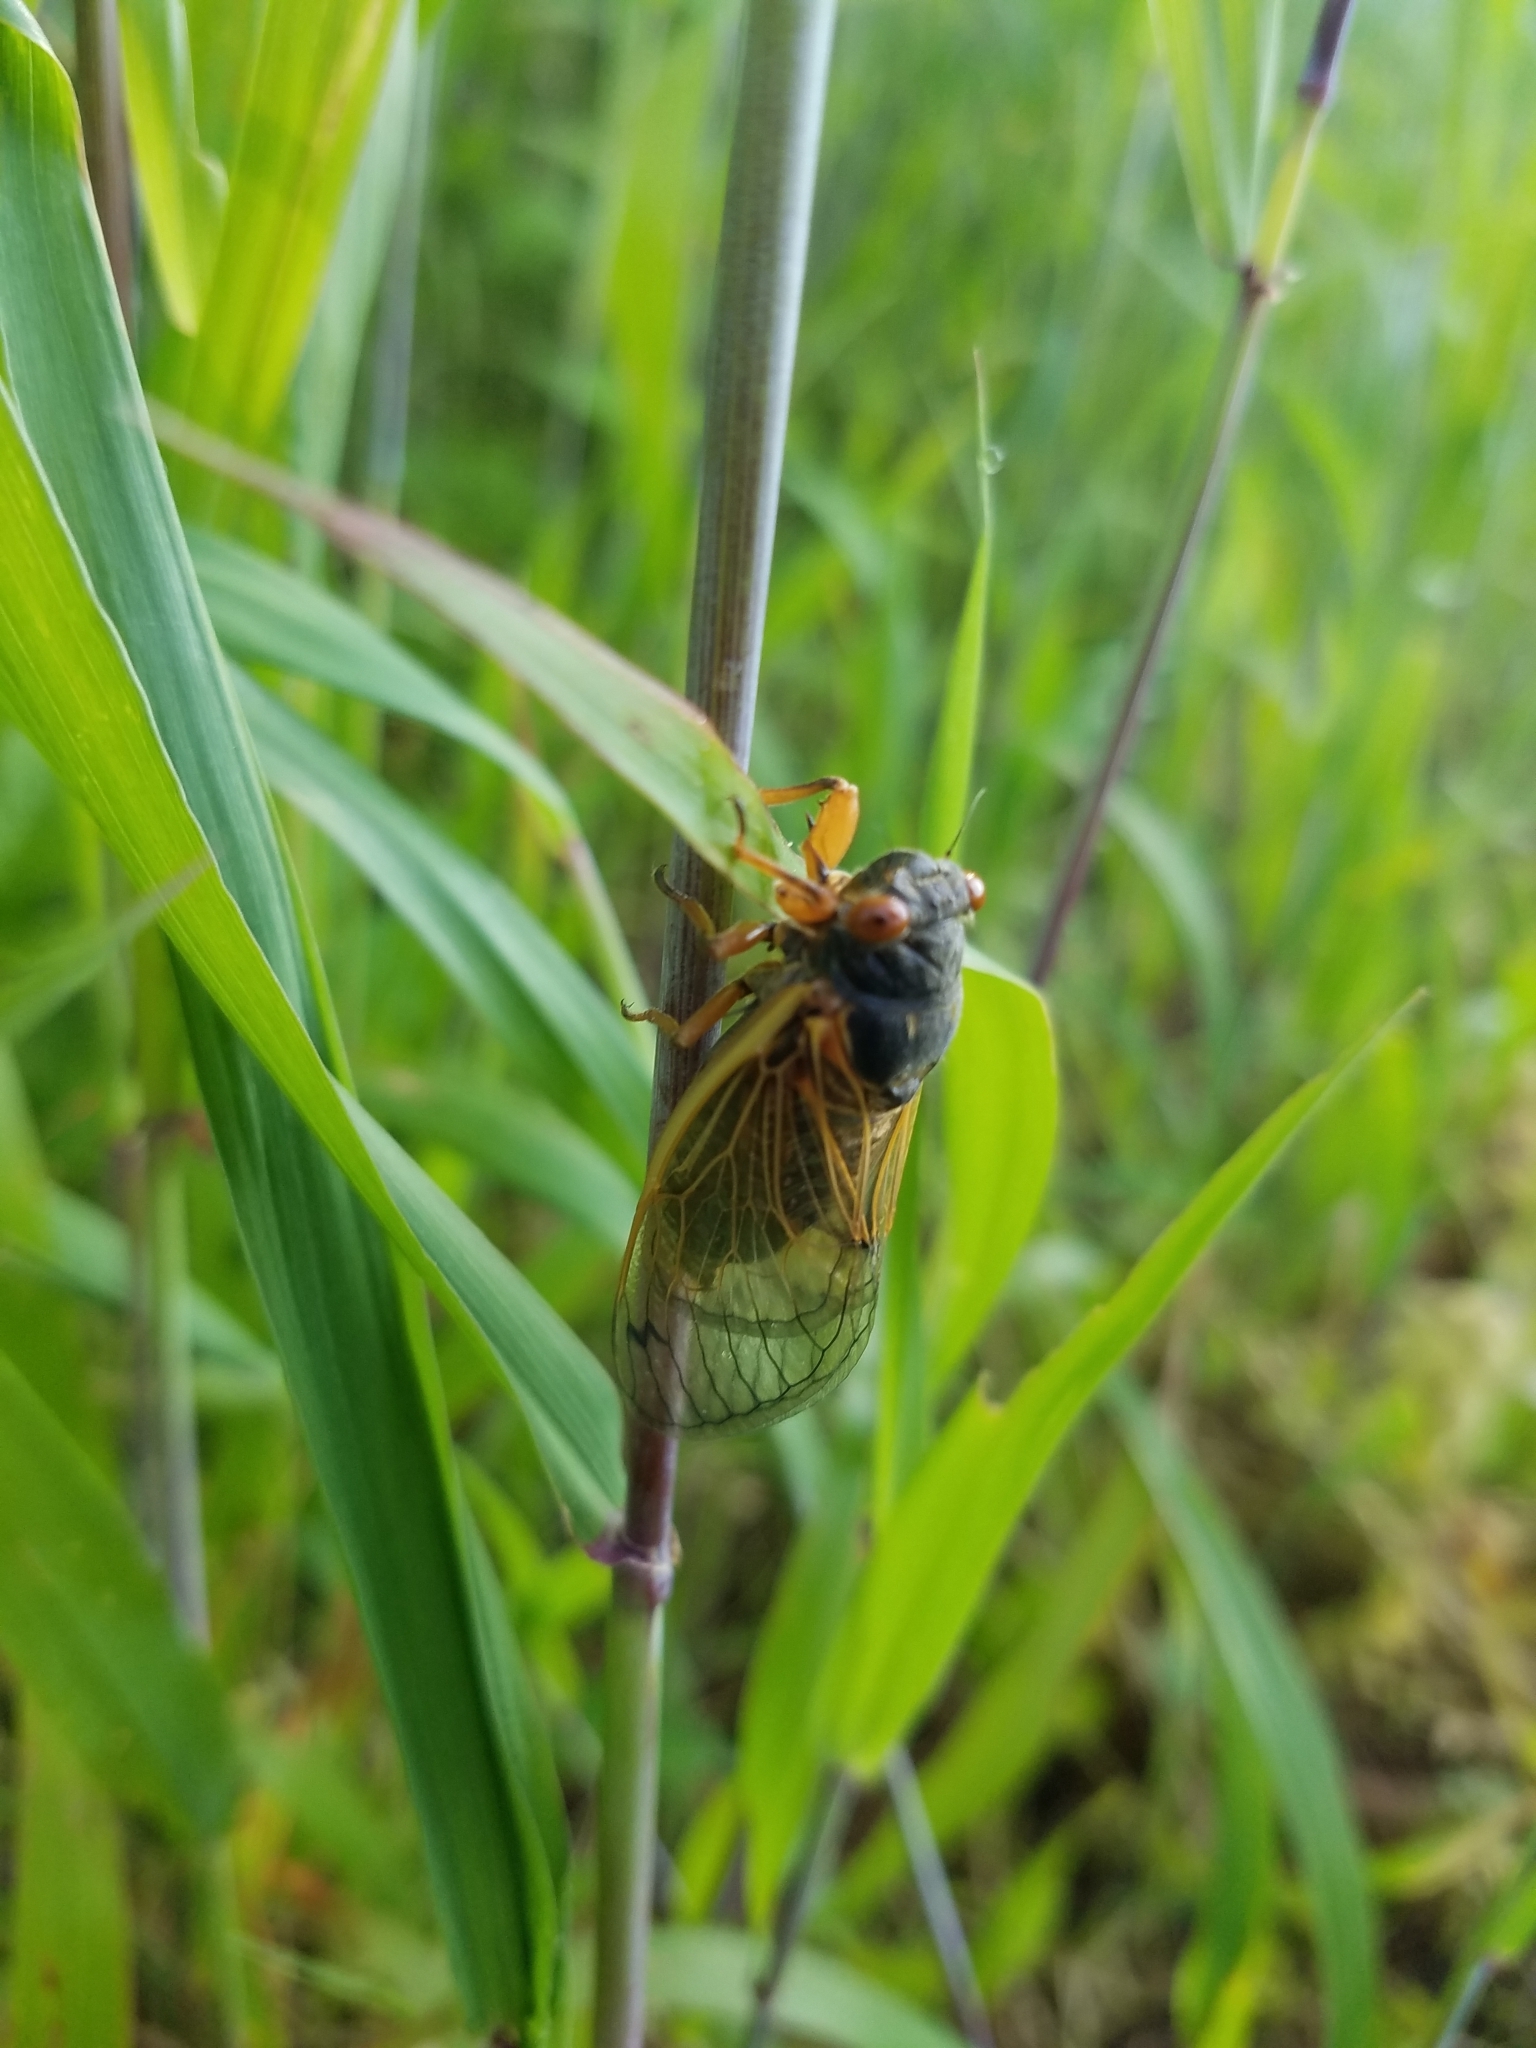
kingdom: Animalia
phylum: Arthropoda
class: Insecta
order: Hemiptera
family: Cicadidae
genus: Magicicada
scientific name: Magicicada cassini
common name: Cassin's 17-year cicada
